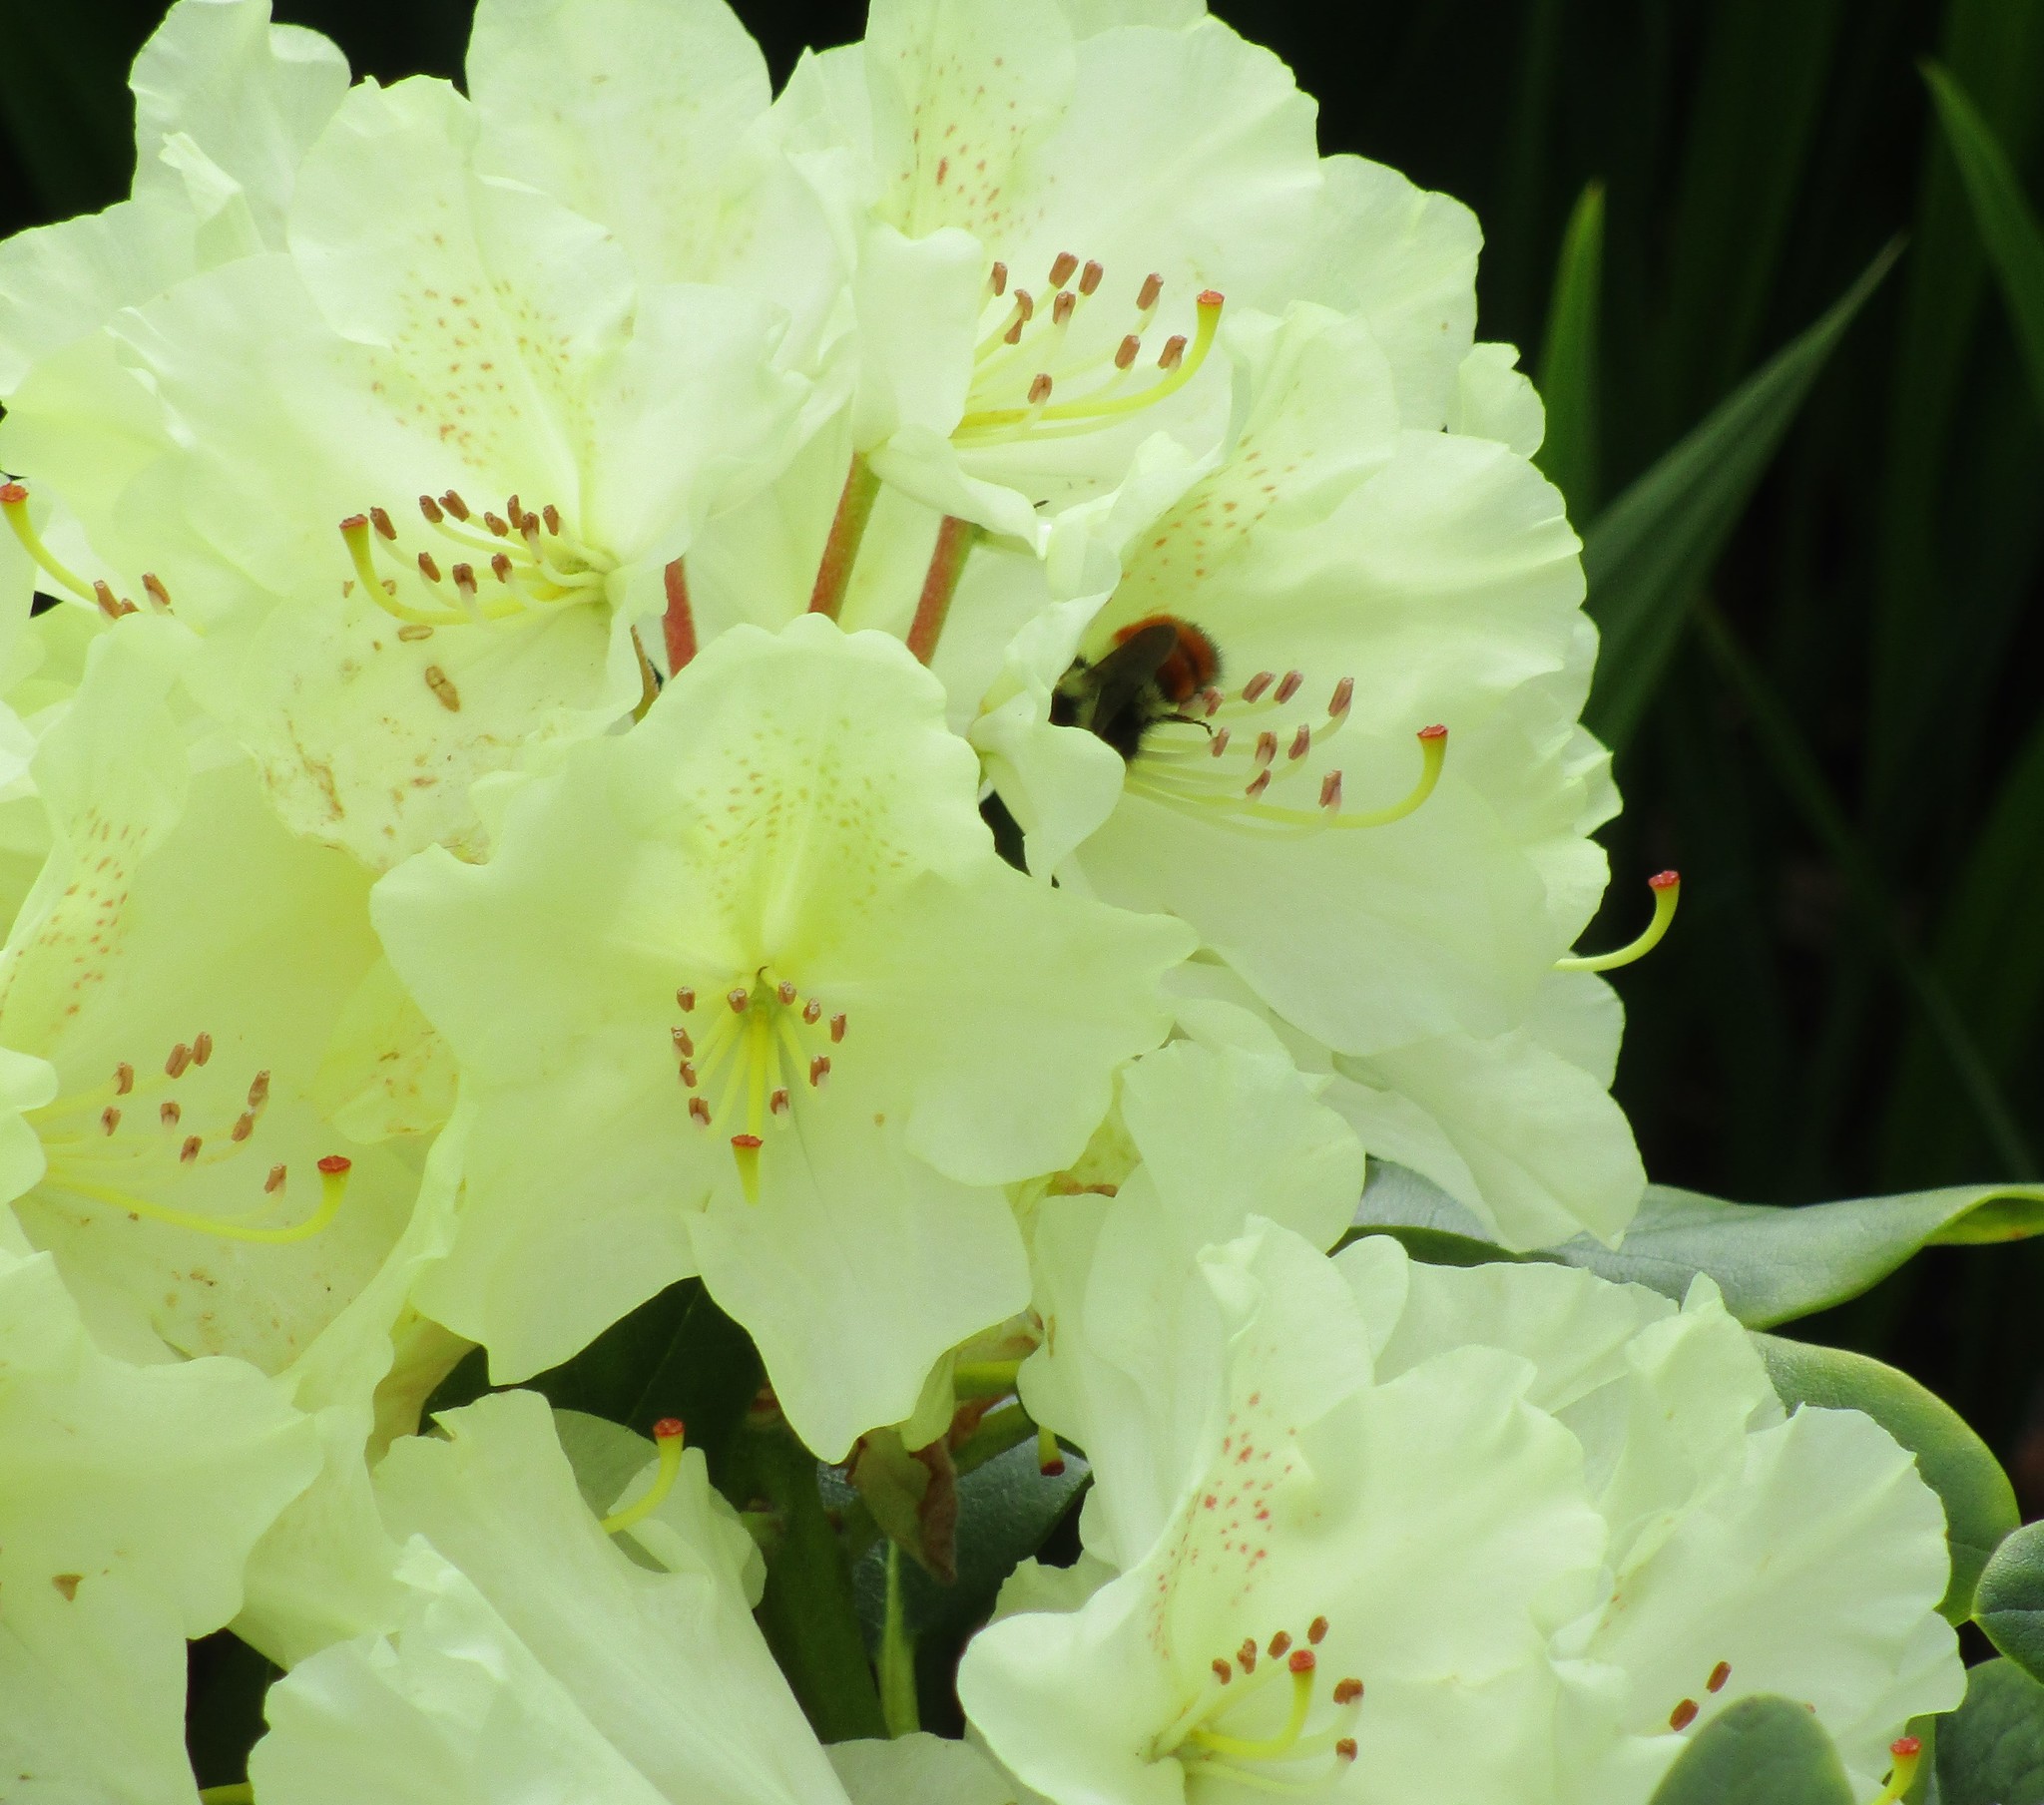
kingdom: Animalia
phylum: Arthropoda
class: Insecta
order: Hymenoptera
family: Apidae
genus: Bombus
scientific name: Bombus melanopygus
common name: Black tail bumble bee
